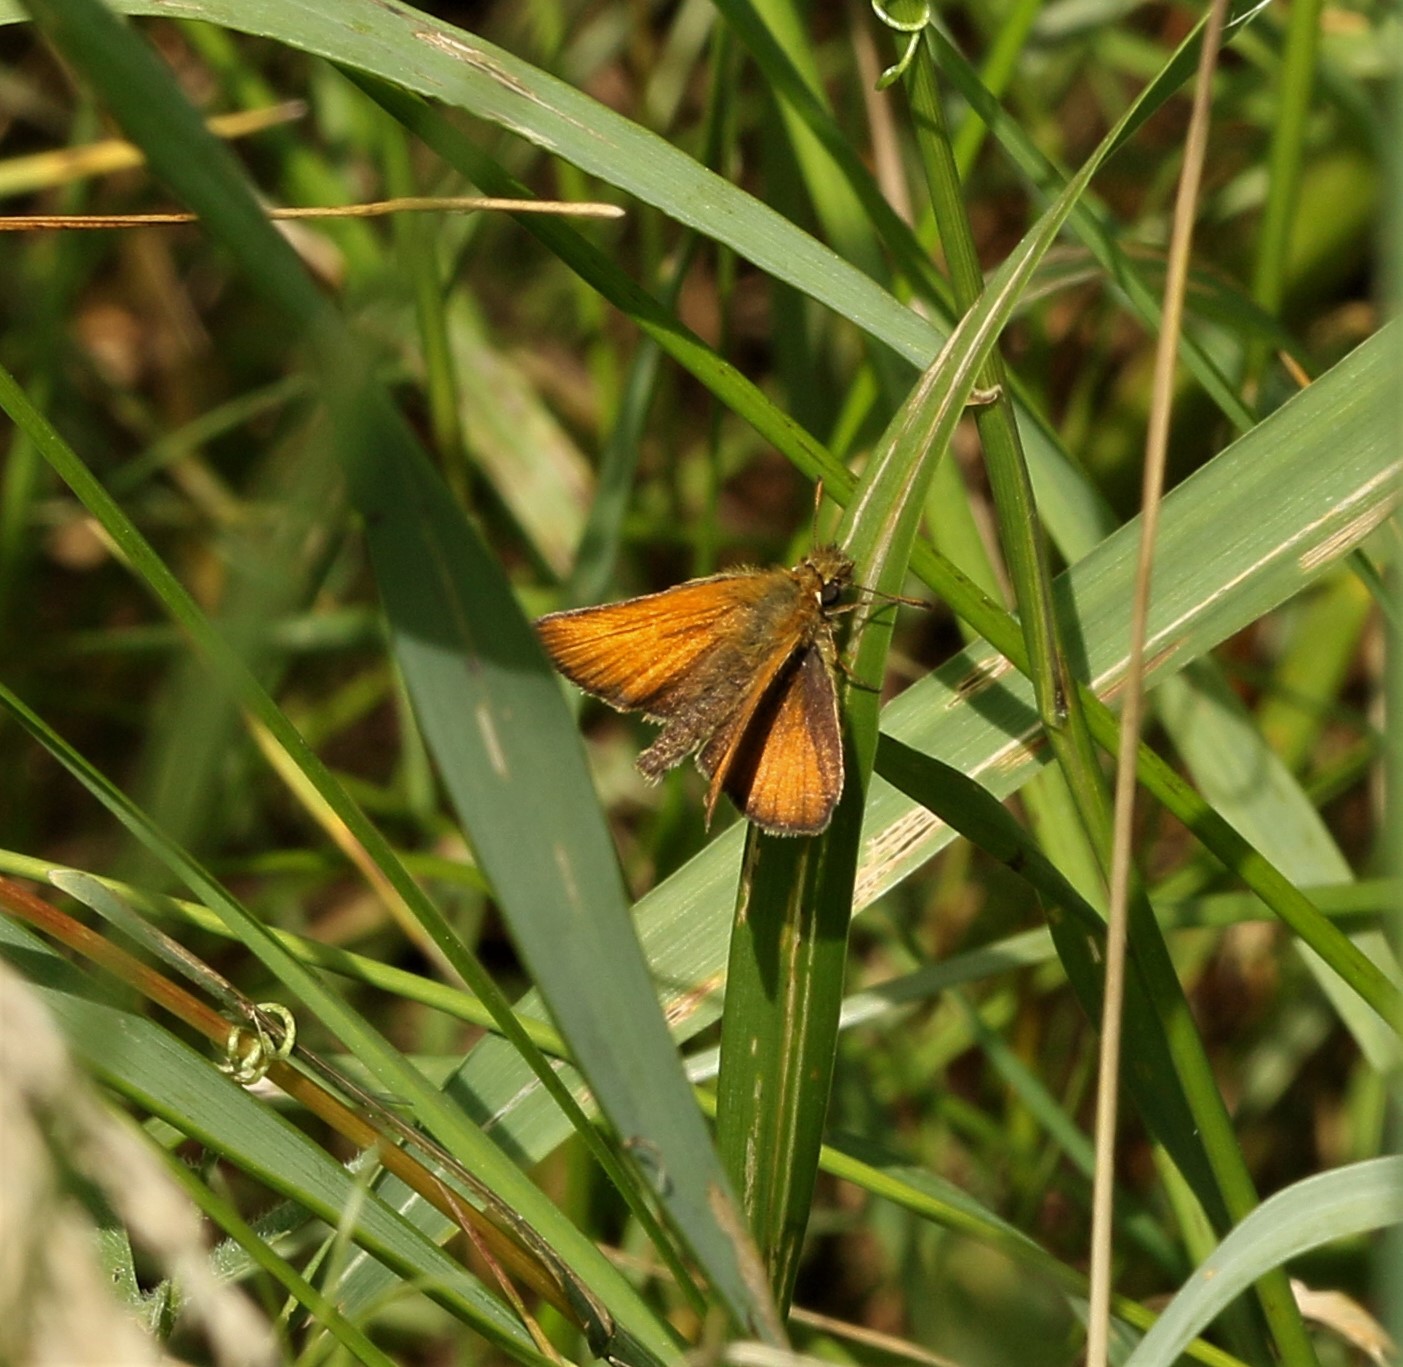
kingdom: Animalia
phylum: Arthropoda
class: Insecta
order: Lepidoptera
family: Hesperiidae
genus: Thymelicus
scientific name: Thymelicus lineola
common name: Essex skipper
